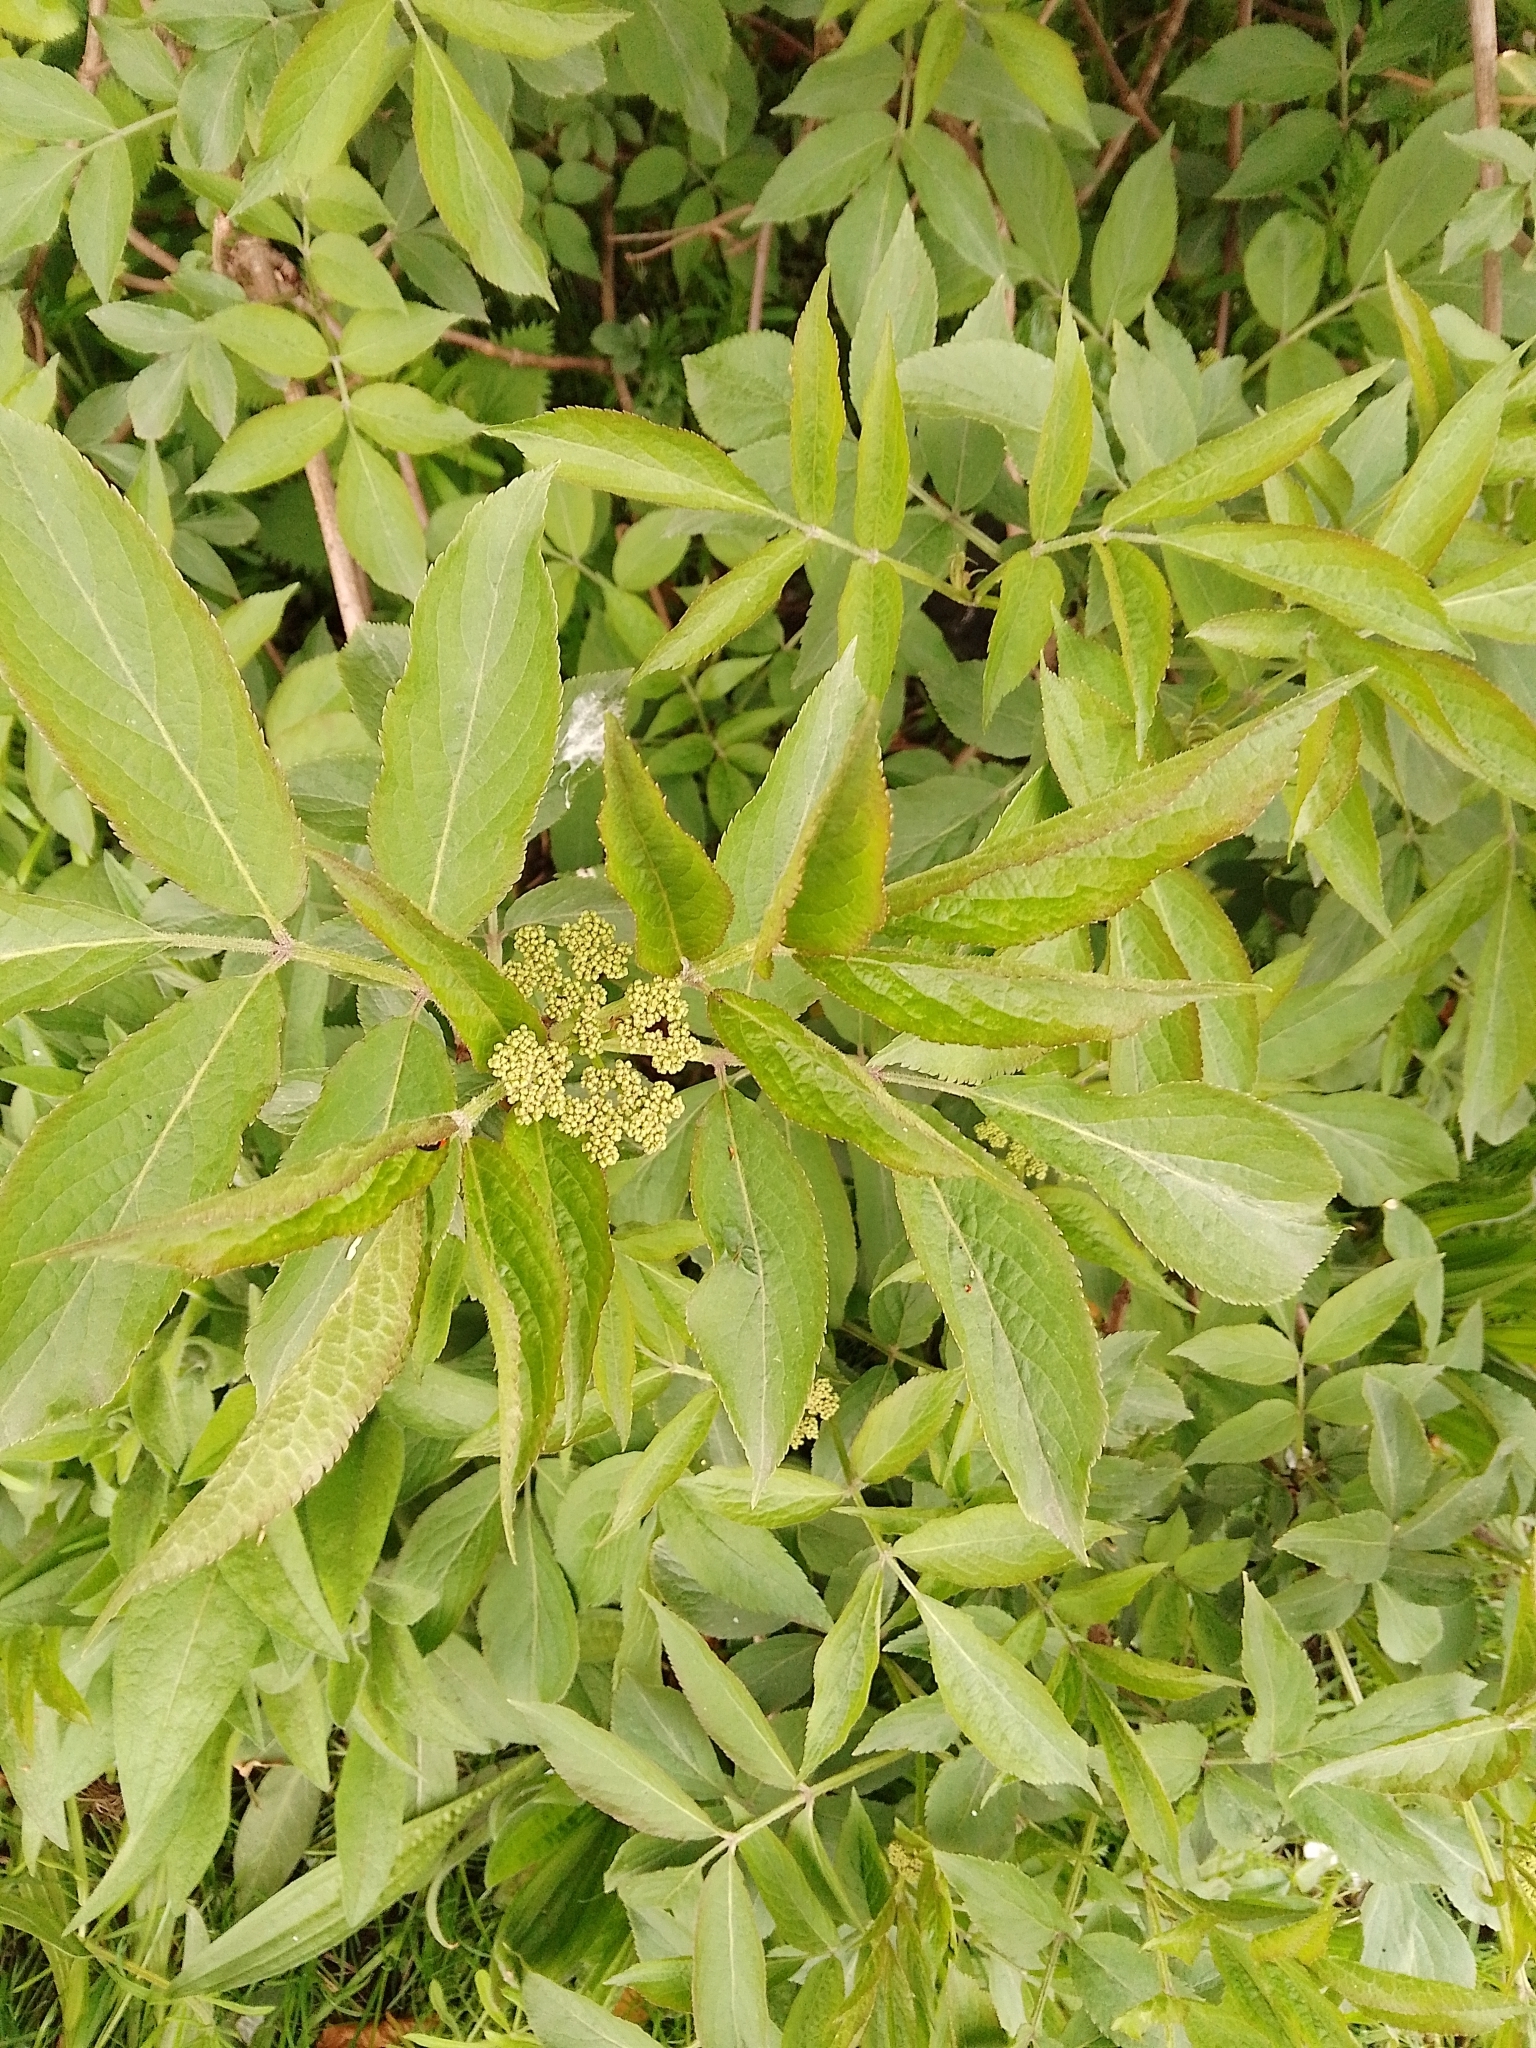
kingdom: Plantae
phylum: Tracheophyta
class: Magnoliopsida
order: Dipsacales
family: Viburnaceae
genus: Sambucus
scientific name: Sambucus nigra
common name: Elder
